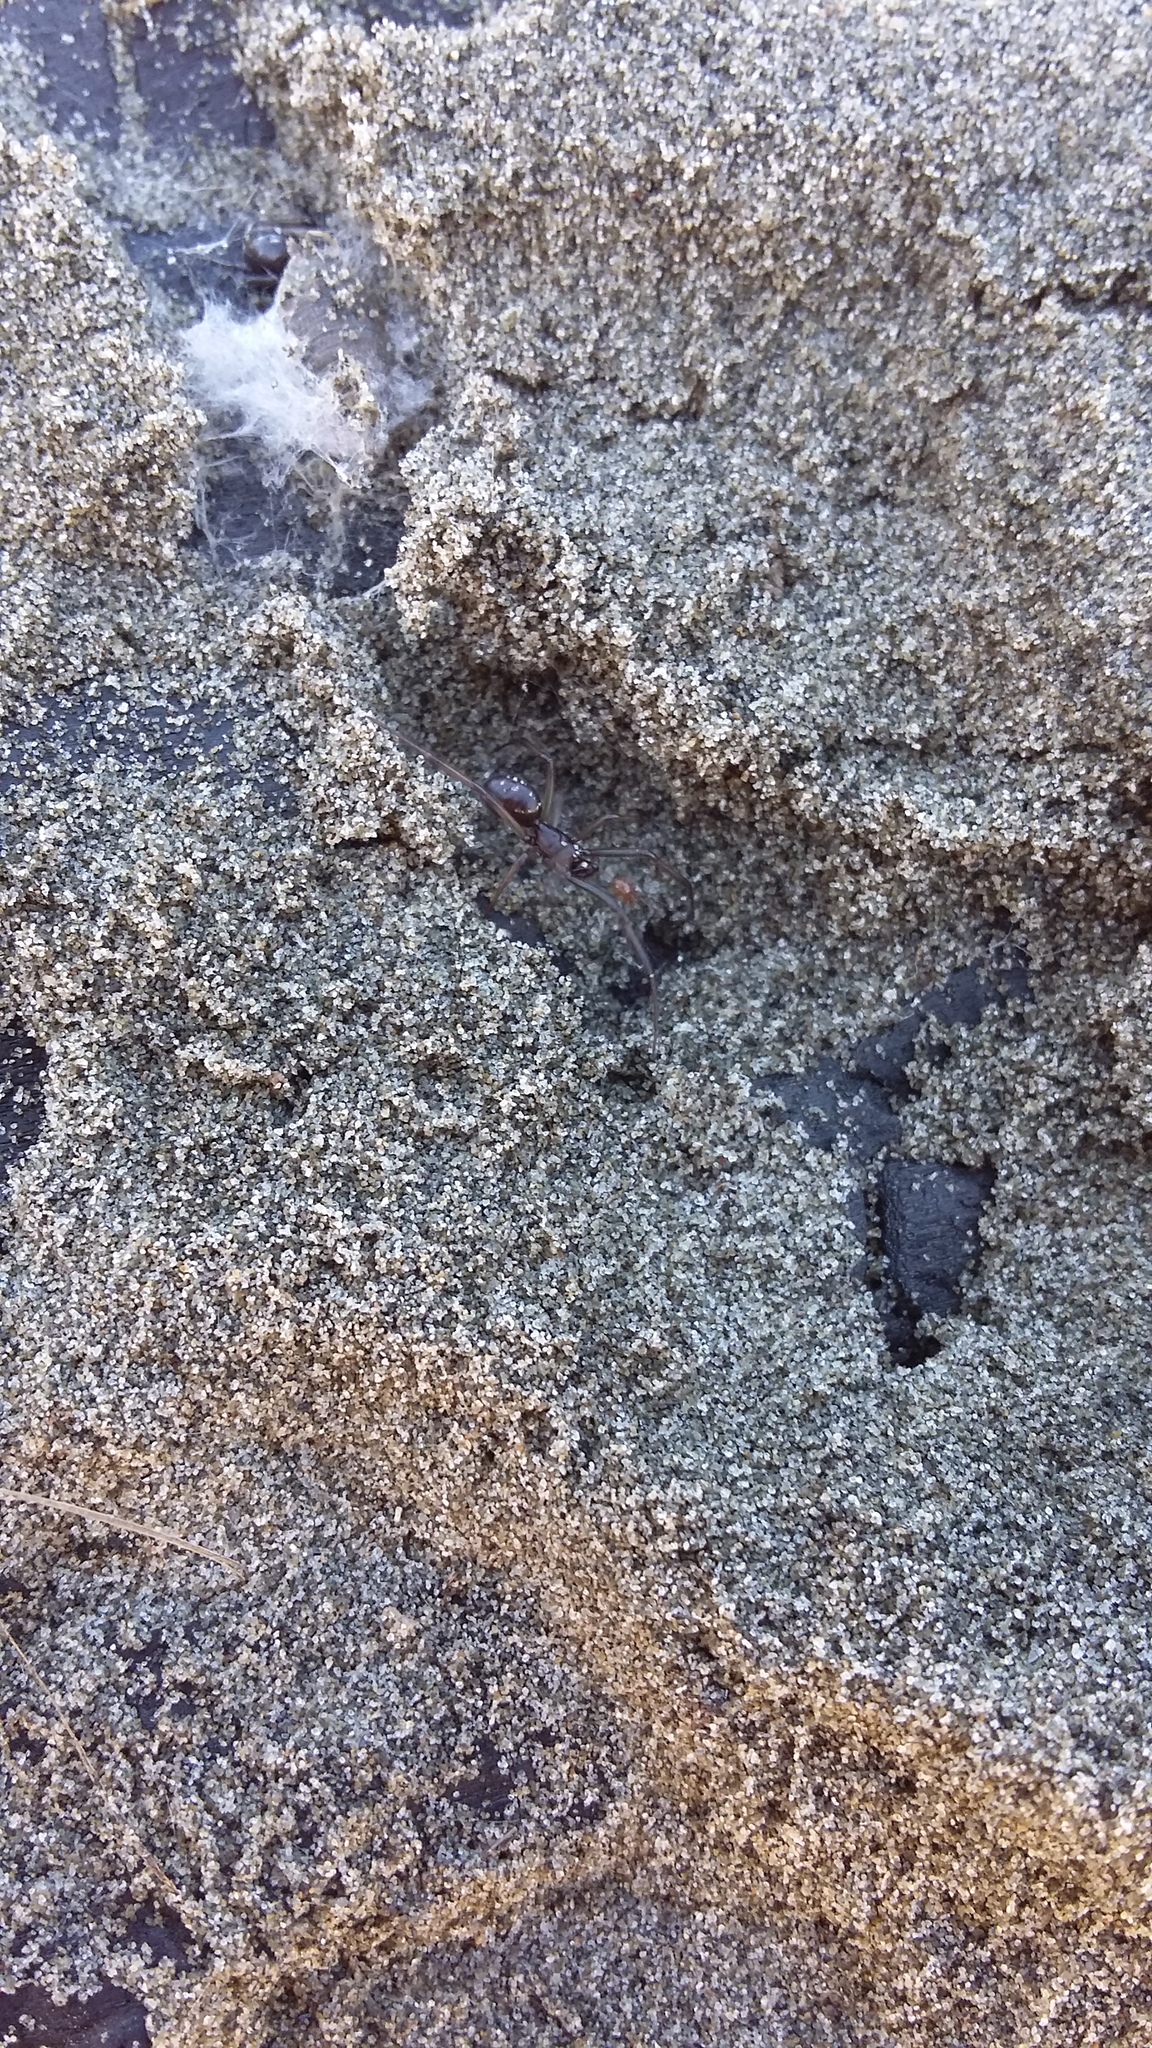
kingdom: Animalia
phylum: Arthropoda
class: Arachnida
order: Araneae
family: Theridiidae
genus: Steatoda
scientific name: Steatoda capensis
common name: Cobweb weaver
